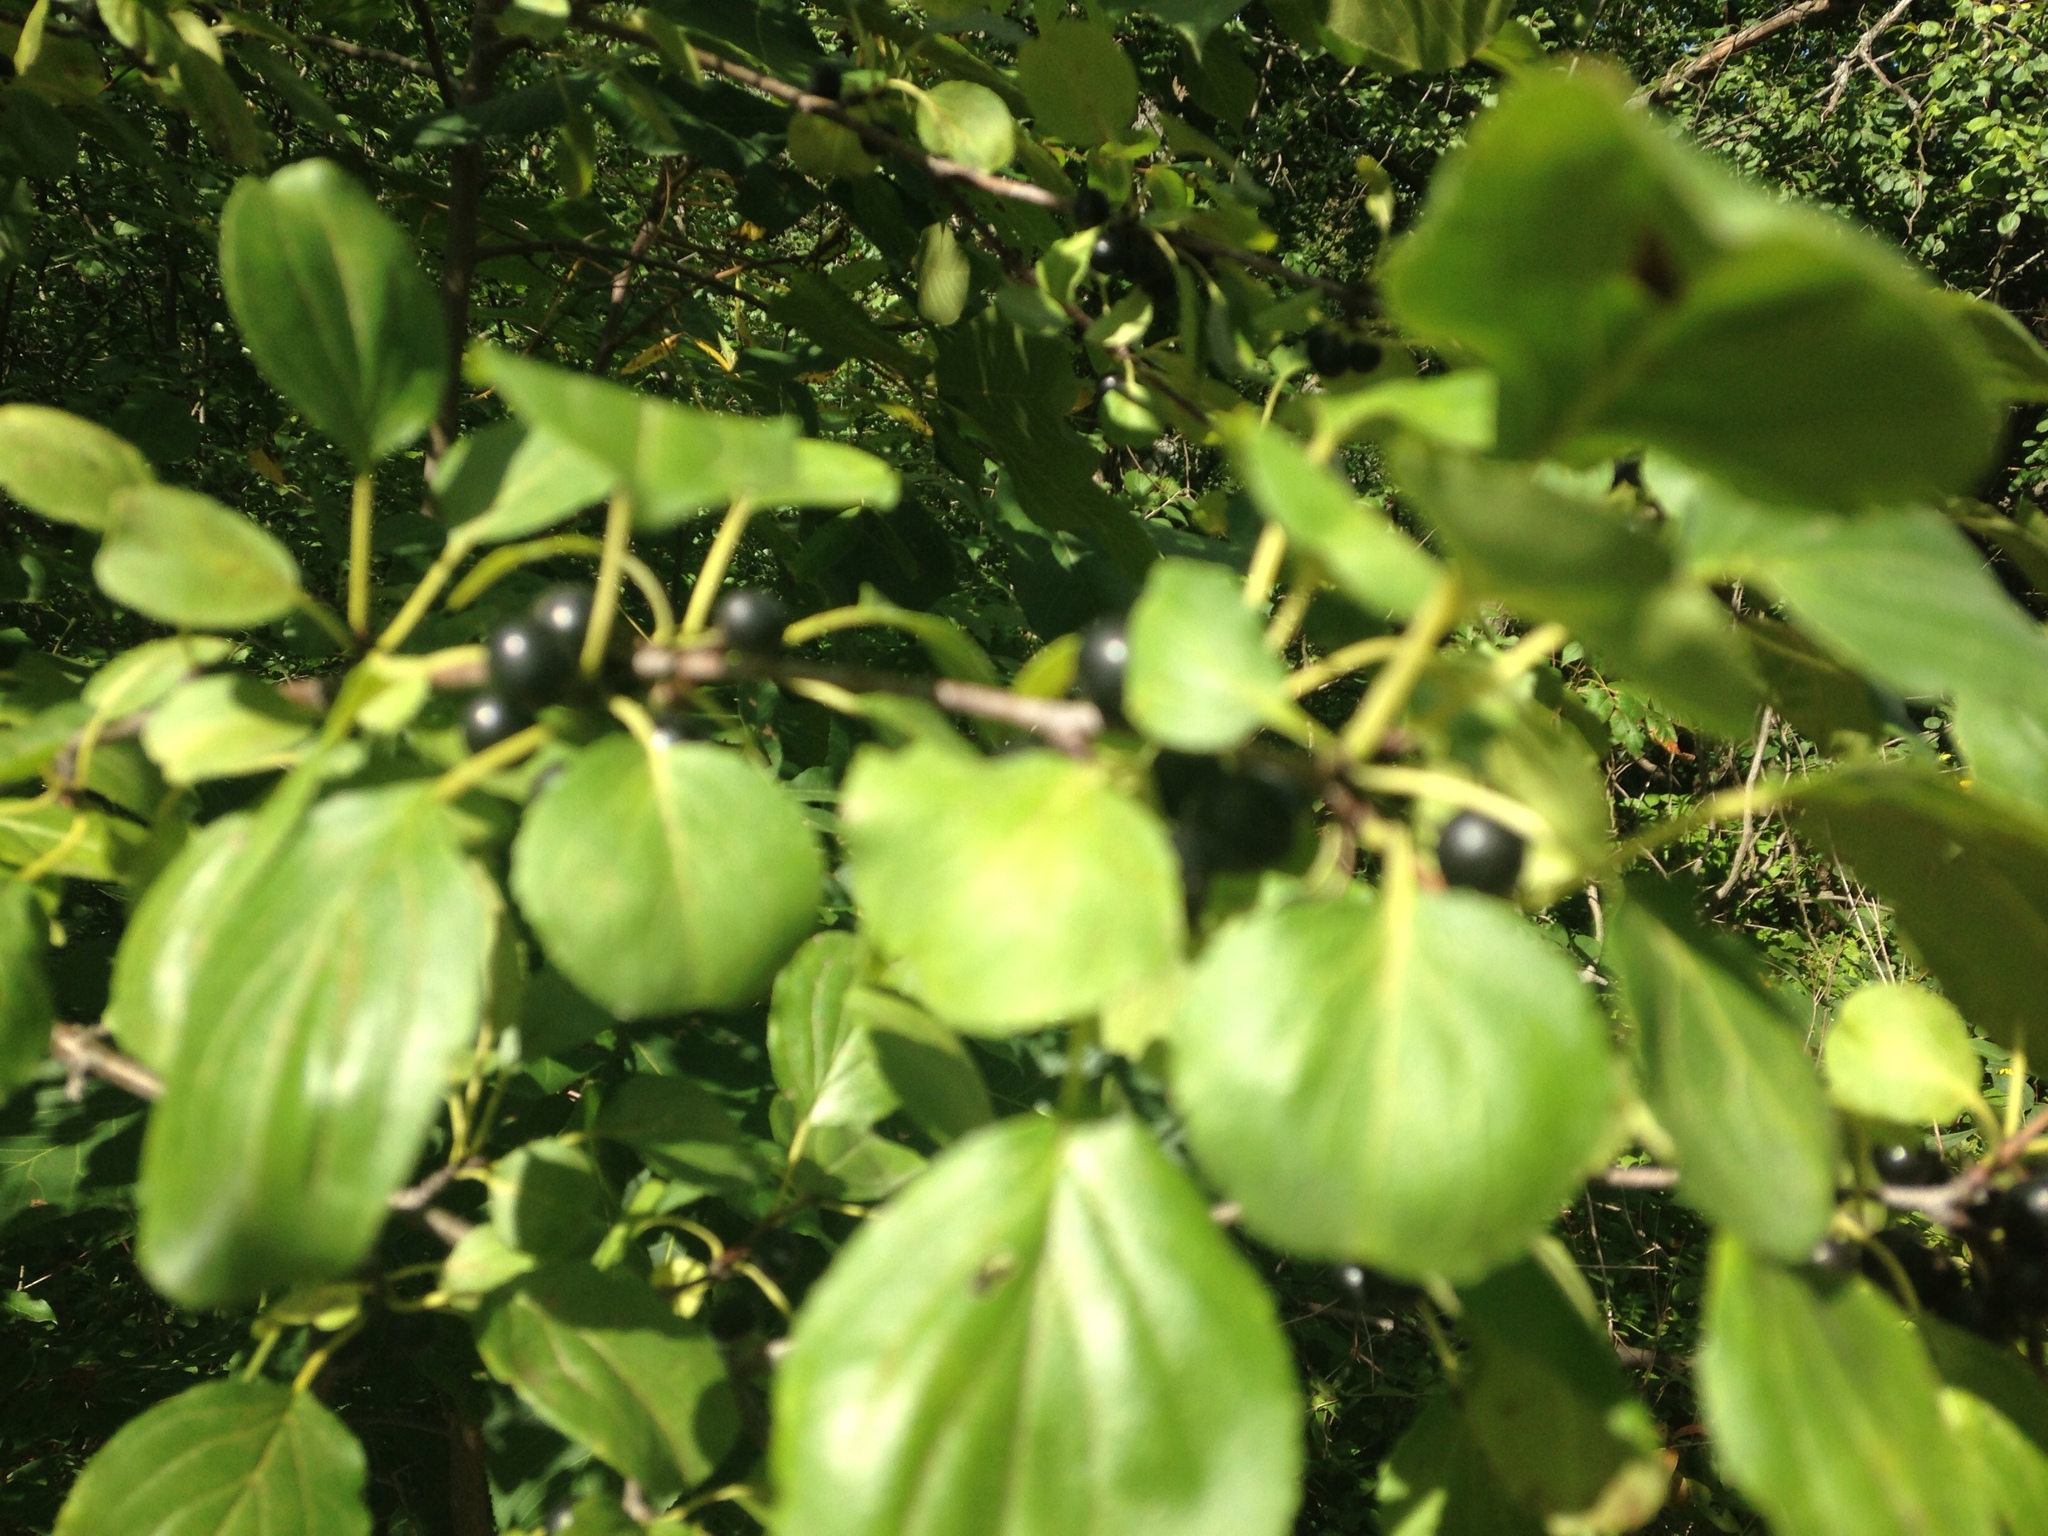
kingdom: Plantae
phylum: Tracheophyta
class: Magnoliopsida
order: Rosales
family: Rhamnaceae
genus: Rhamnus
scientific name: Rhamnus cathartica
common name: Common buckthorn
